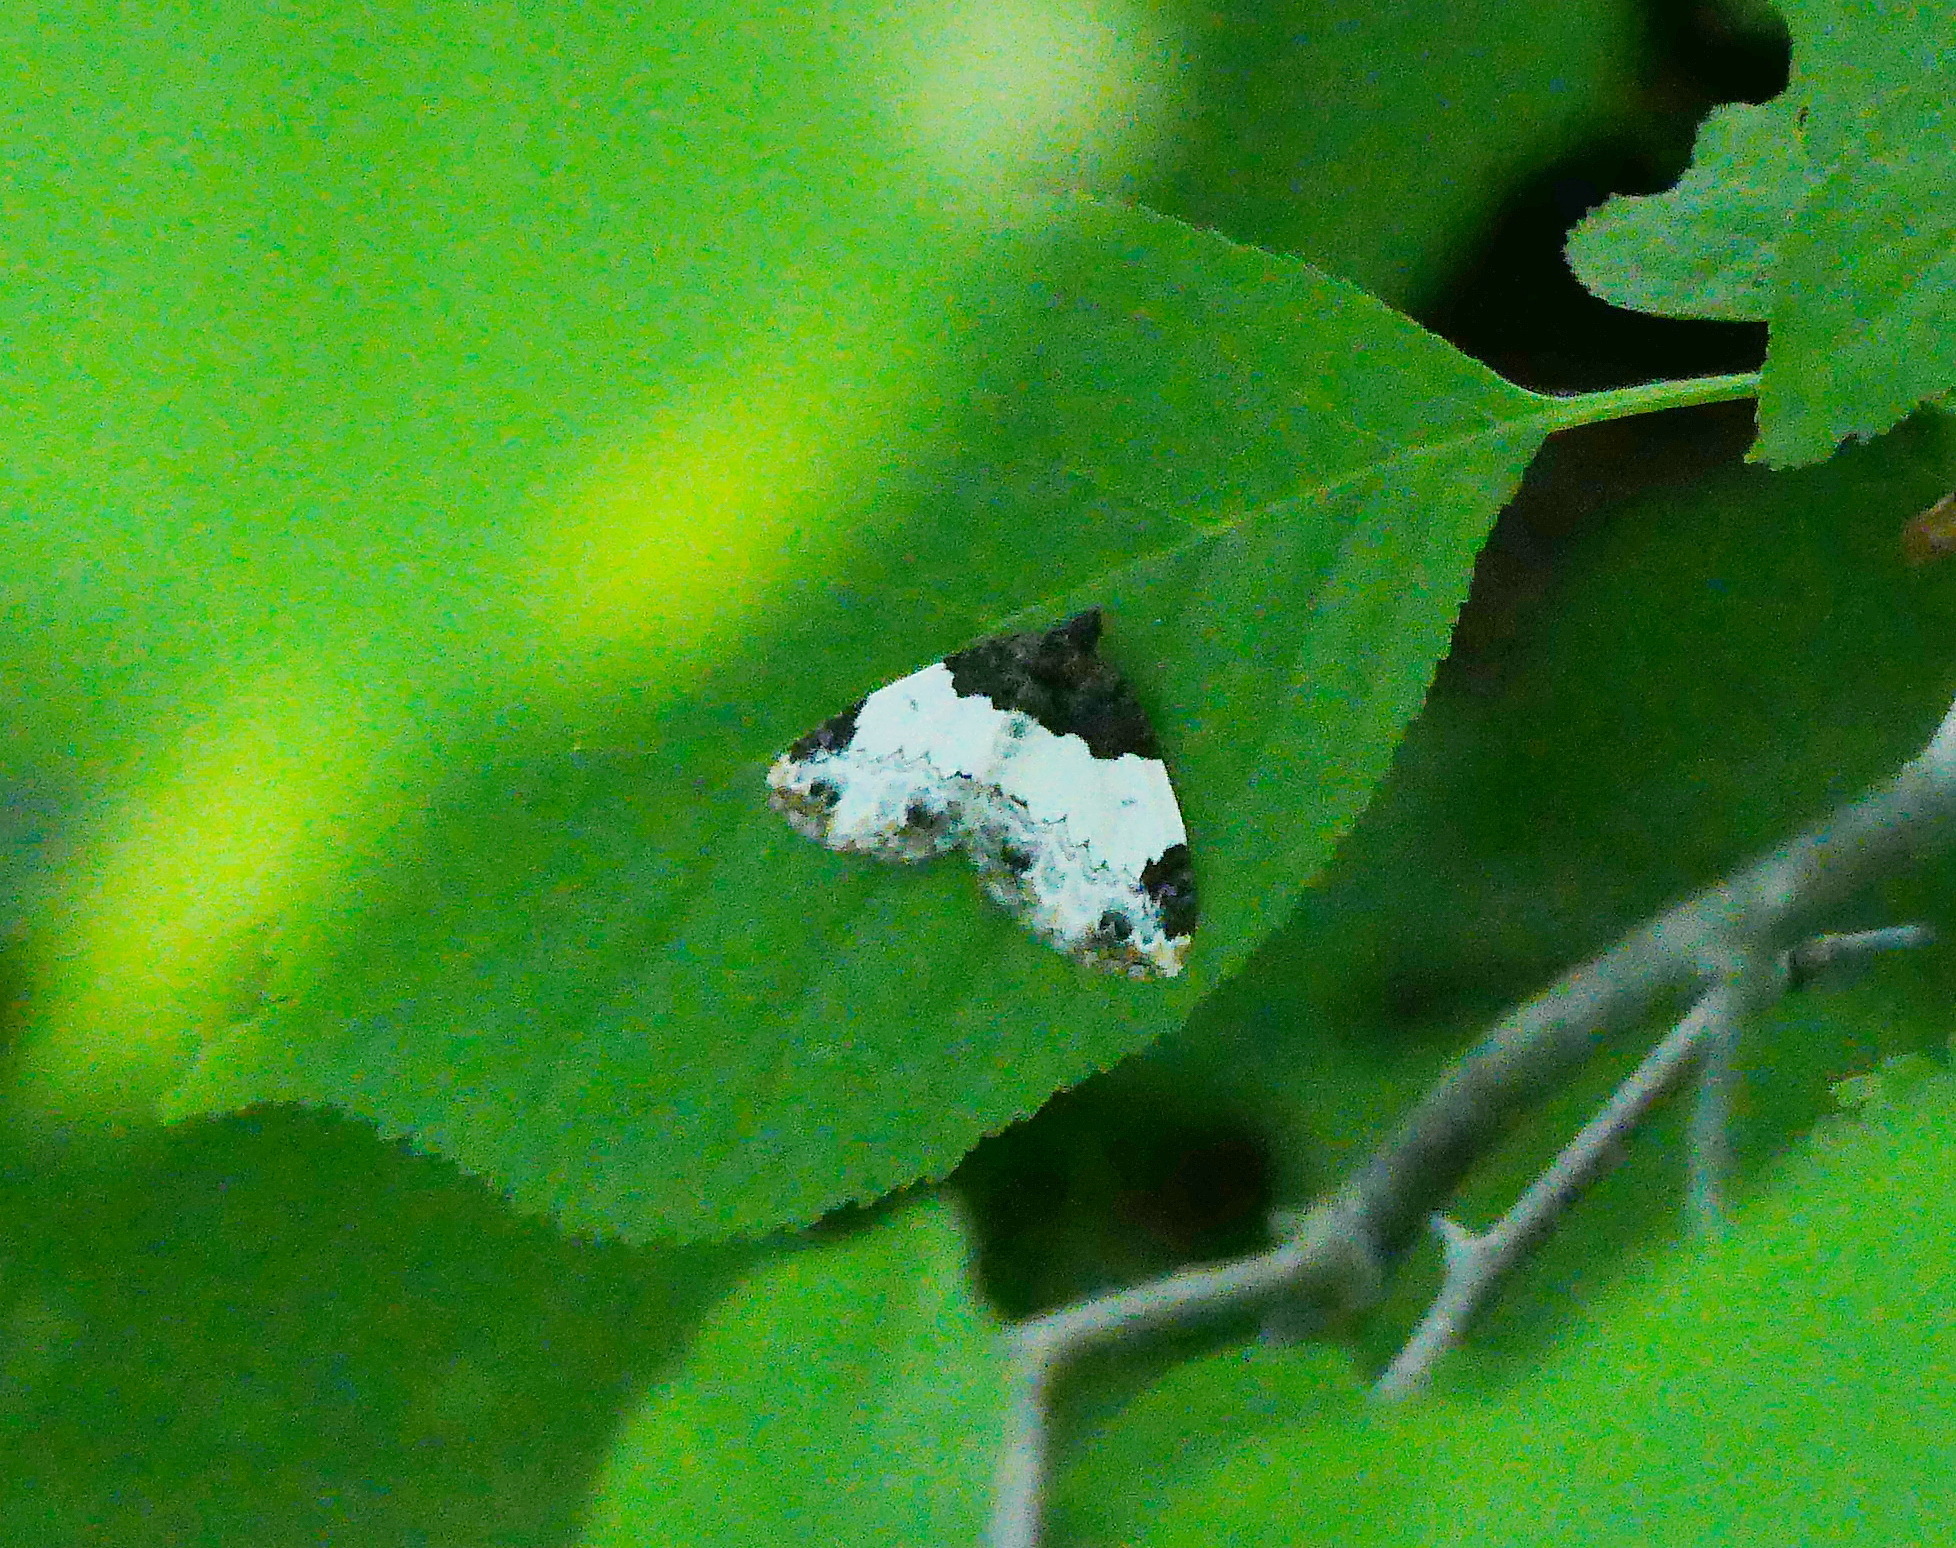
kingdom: Animalia
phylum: Arthropoda
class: Insecta
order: Lepidoptera
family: Geometridae
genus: Mesoleuca
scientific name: Mesoleuca ruficillata
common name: White-ribboned carpet moth
